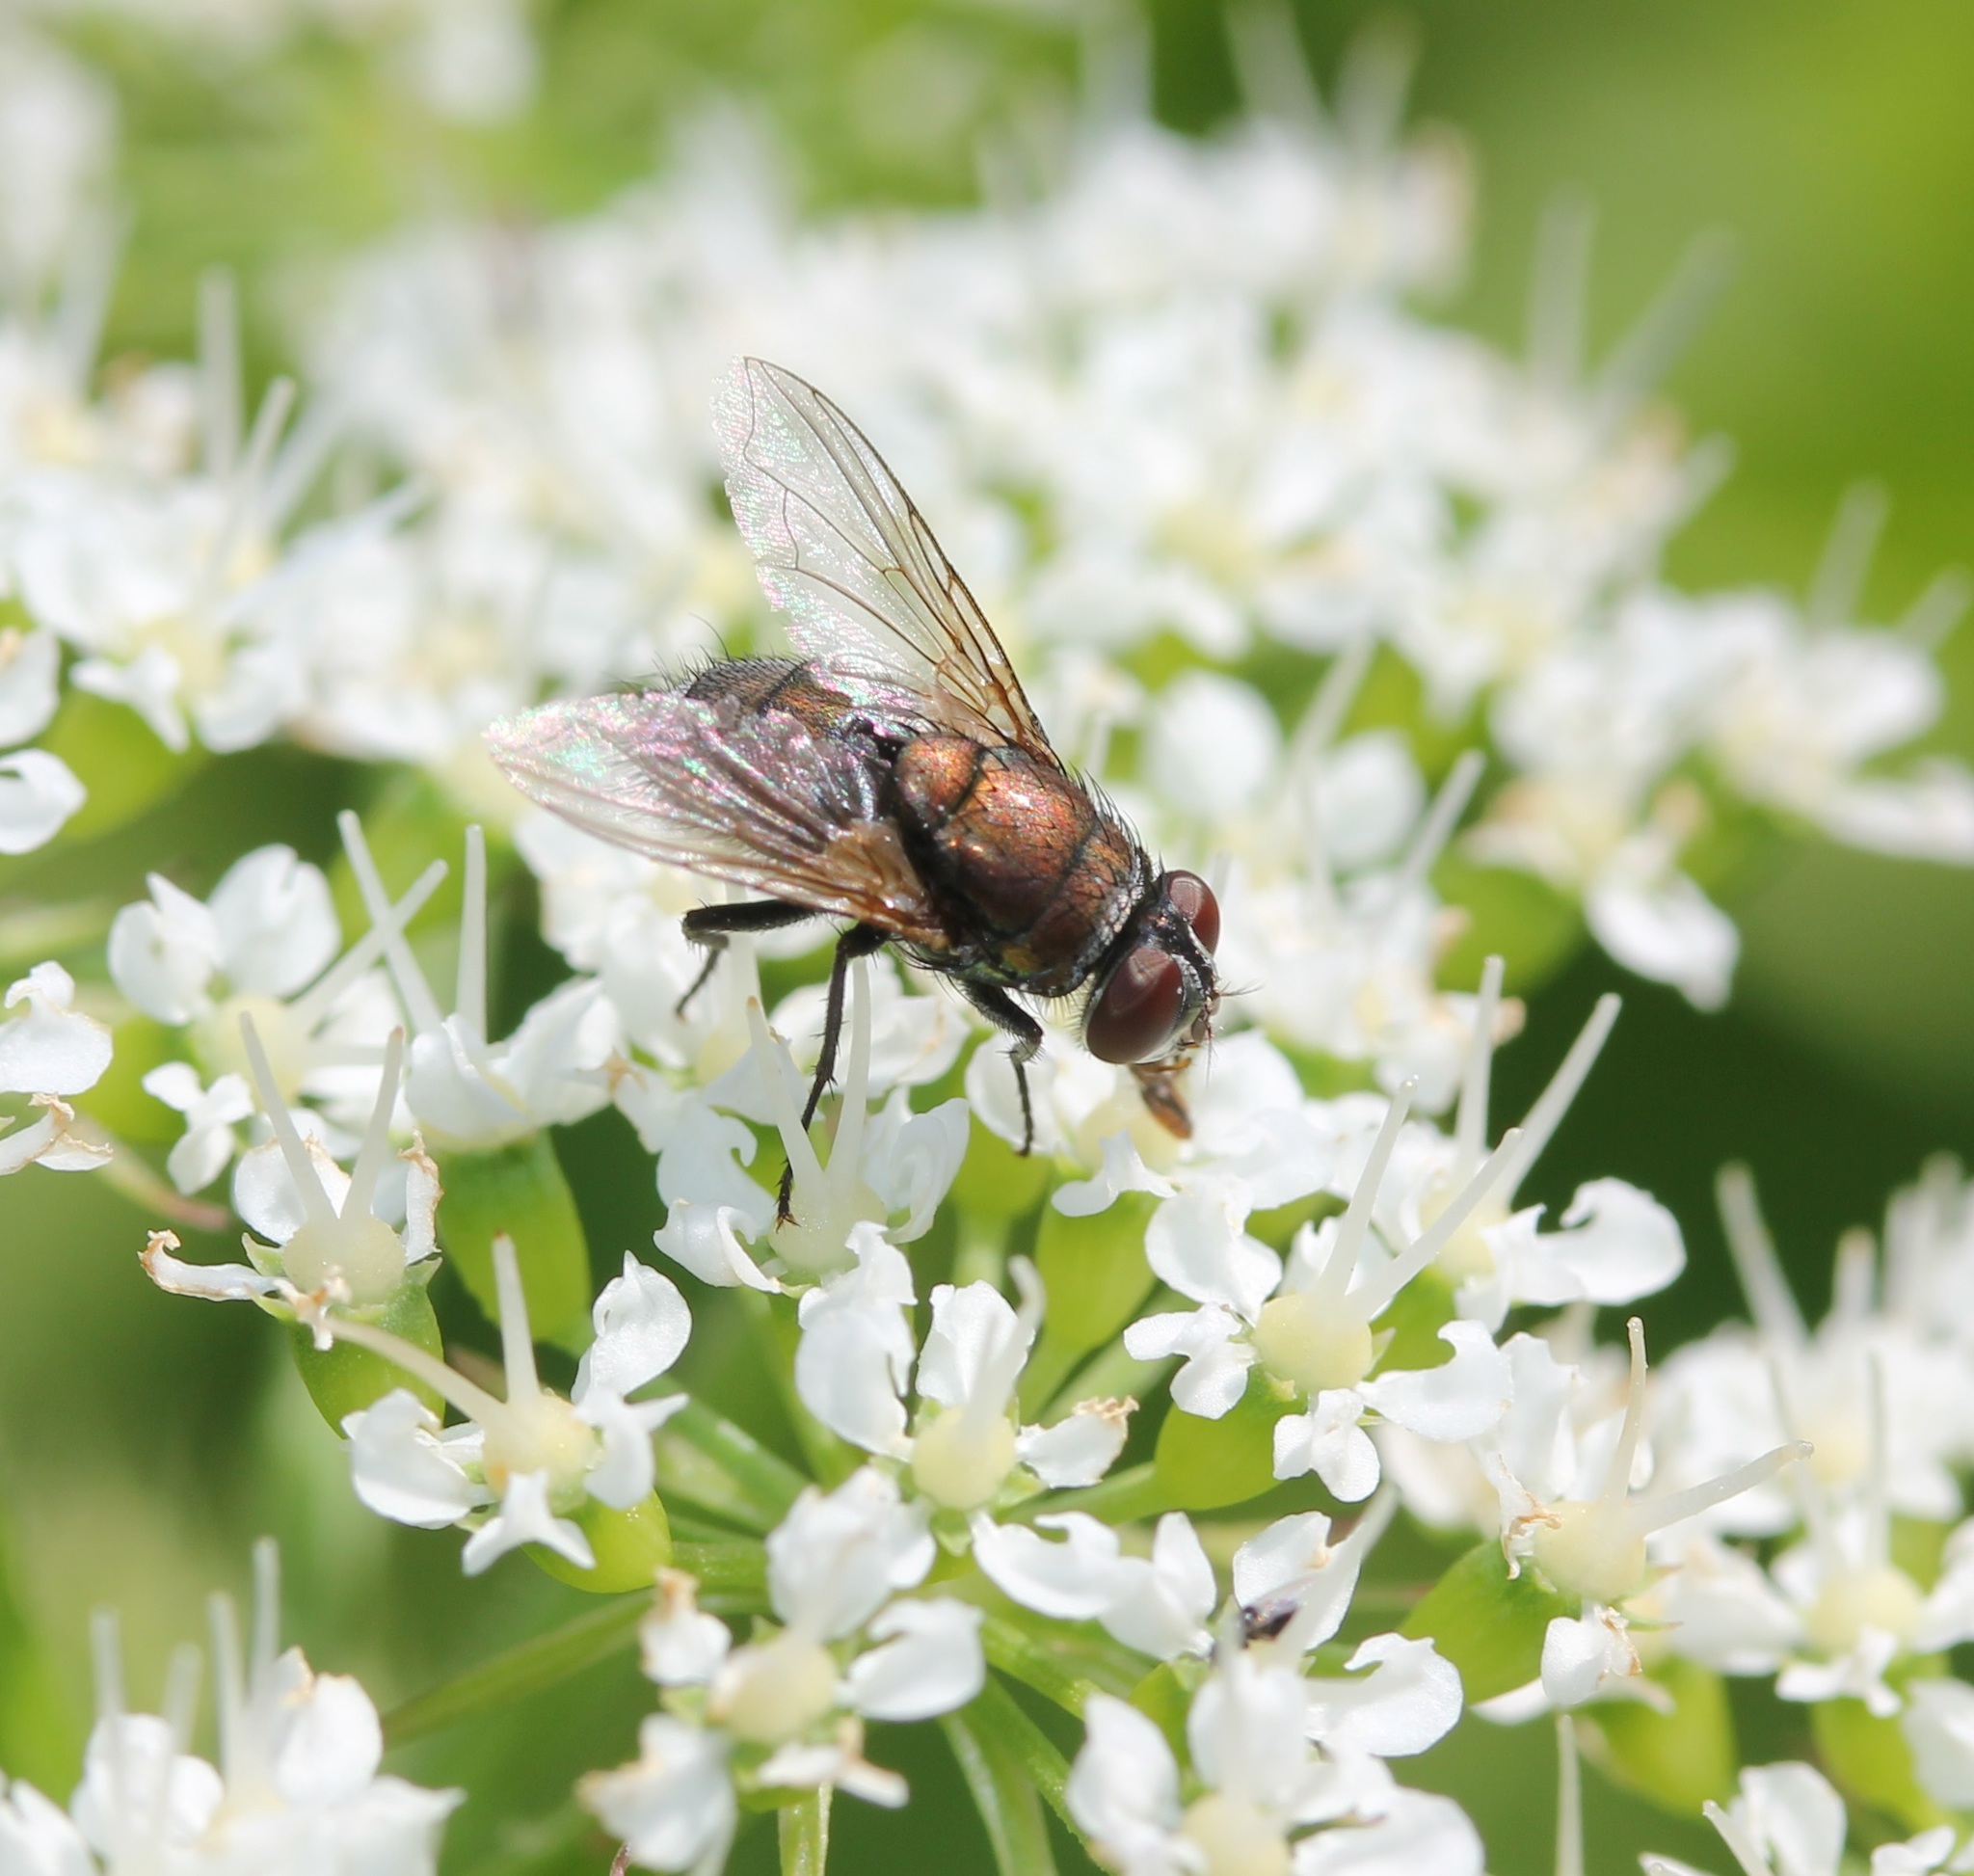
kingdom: Animalia
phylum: Arthropoda
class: Insecta
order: Diptera
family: Calliphoridae
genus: Lucilia
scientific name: Lucilia cuprina
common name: Sheep blow fly
